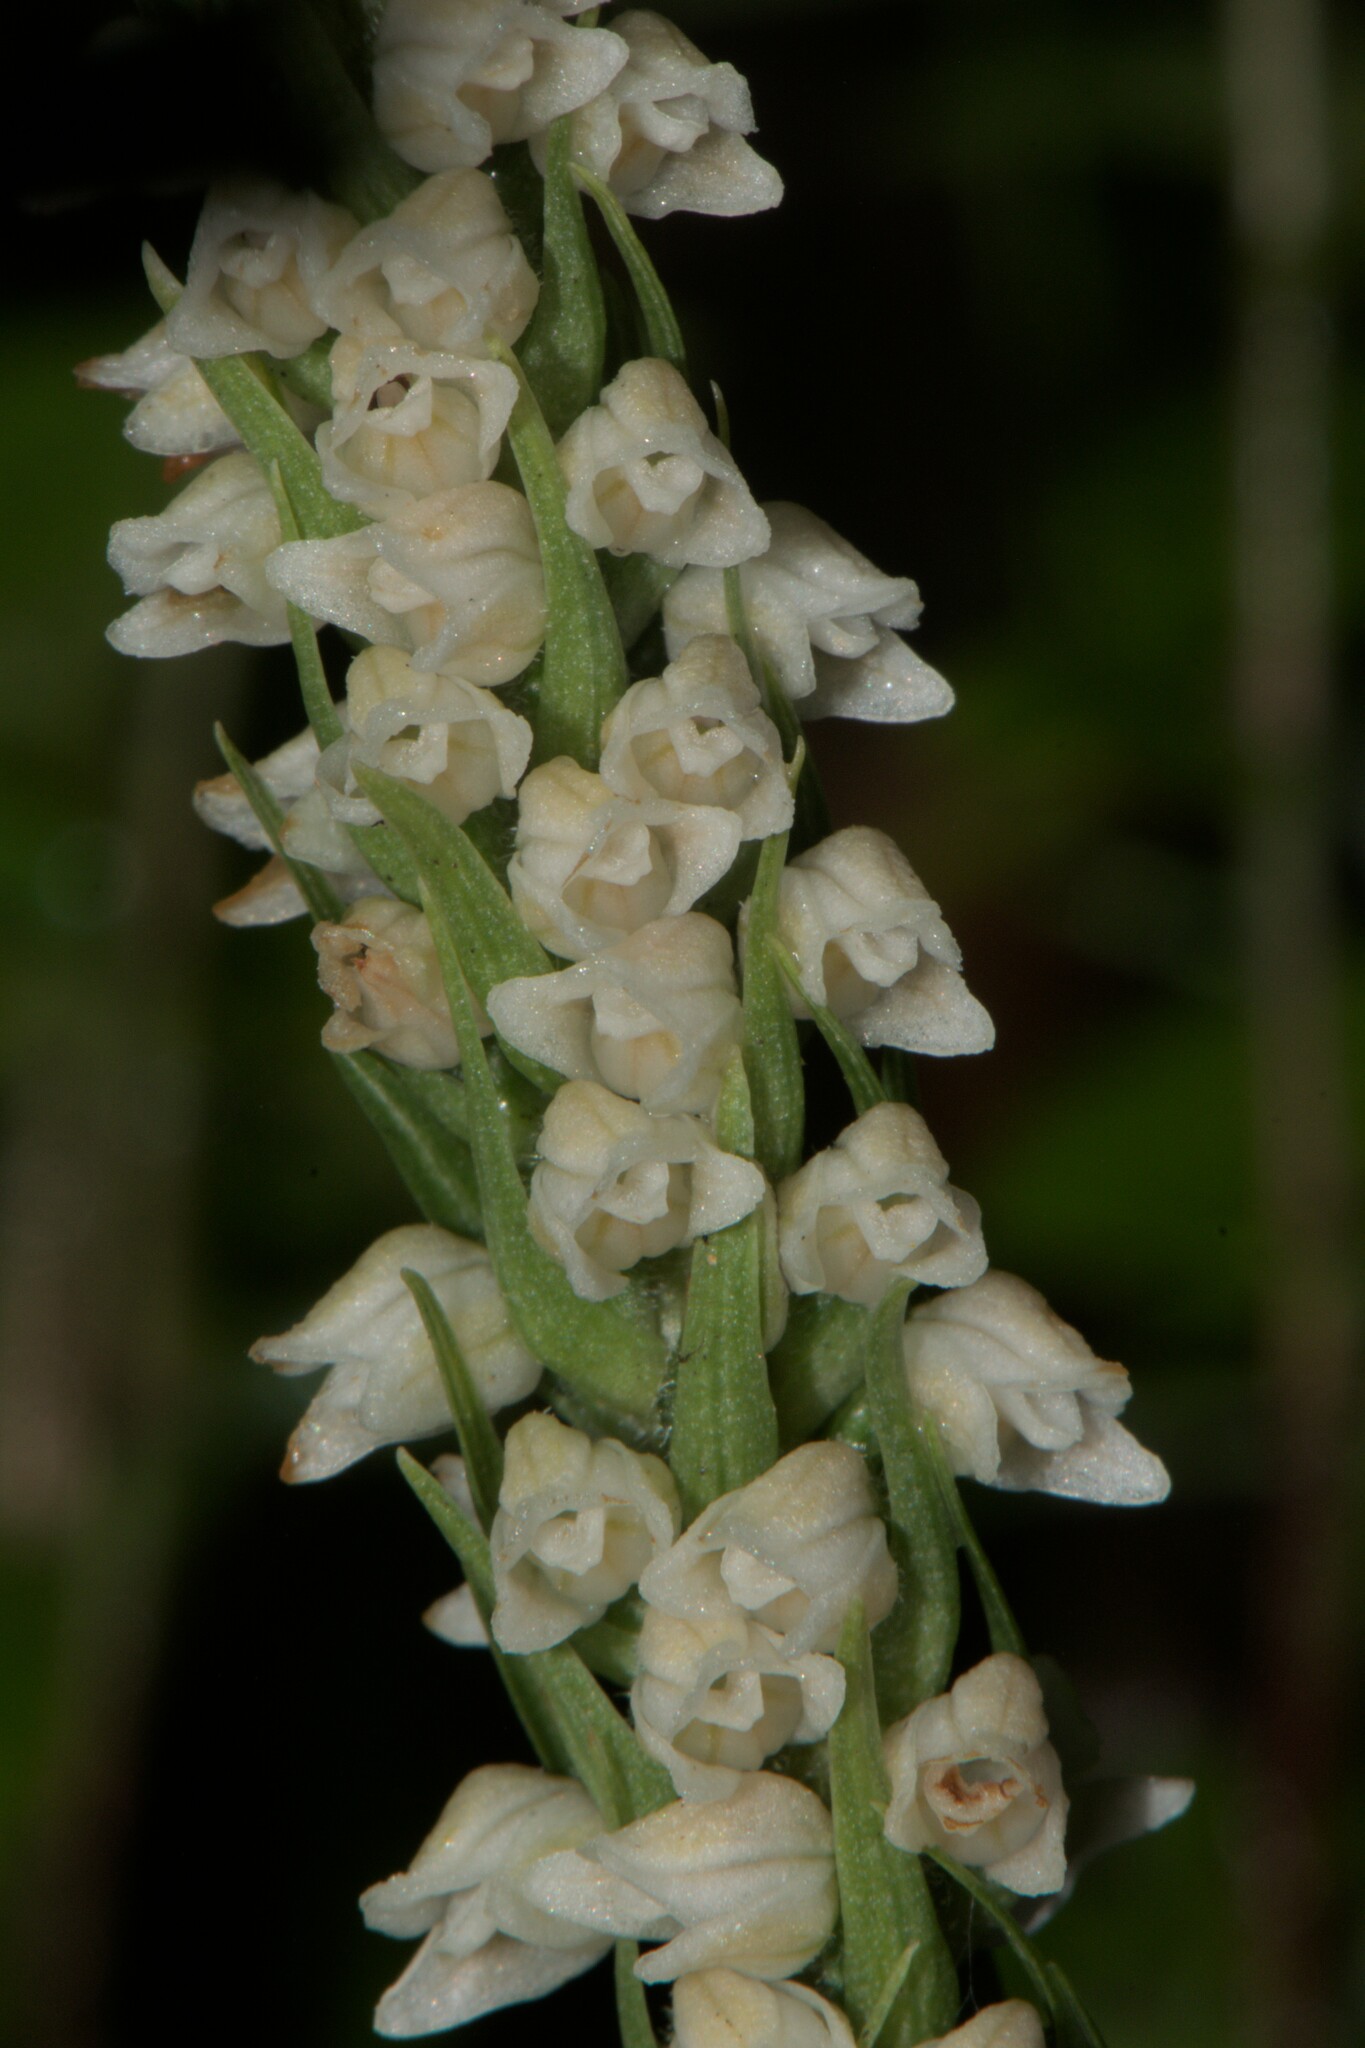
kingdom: Plantae
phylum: Tracheophyta
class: Liliopsida
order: Asparagales
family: Orchidaceae
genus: Goodyera
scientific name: Goodyera repens
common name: Creeping lady's-tresses
